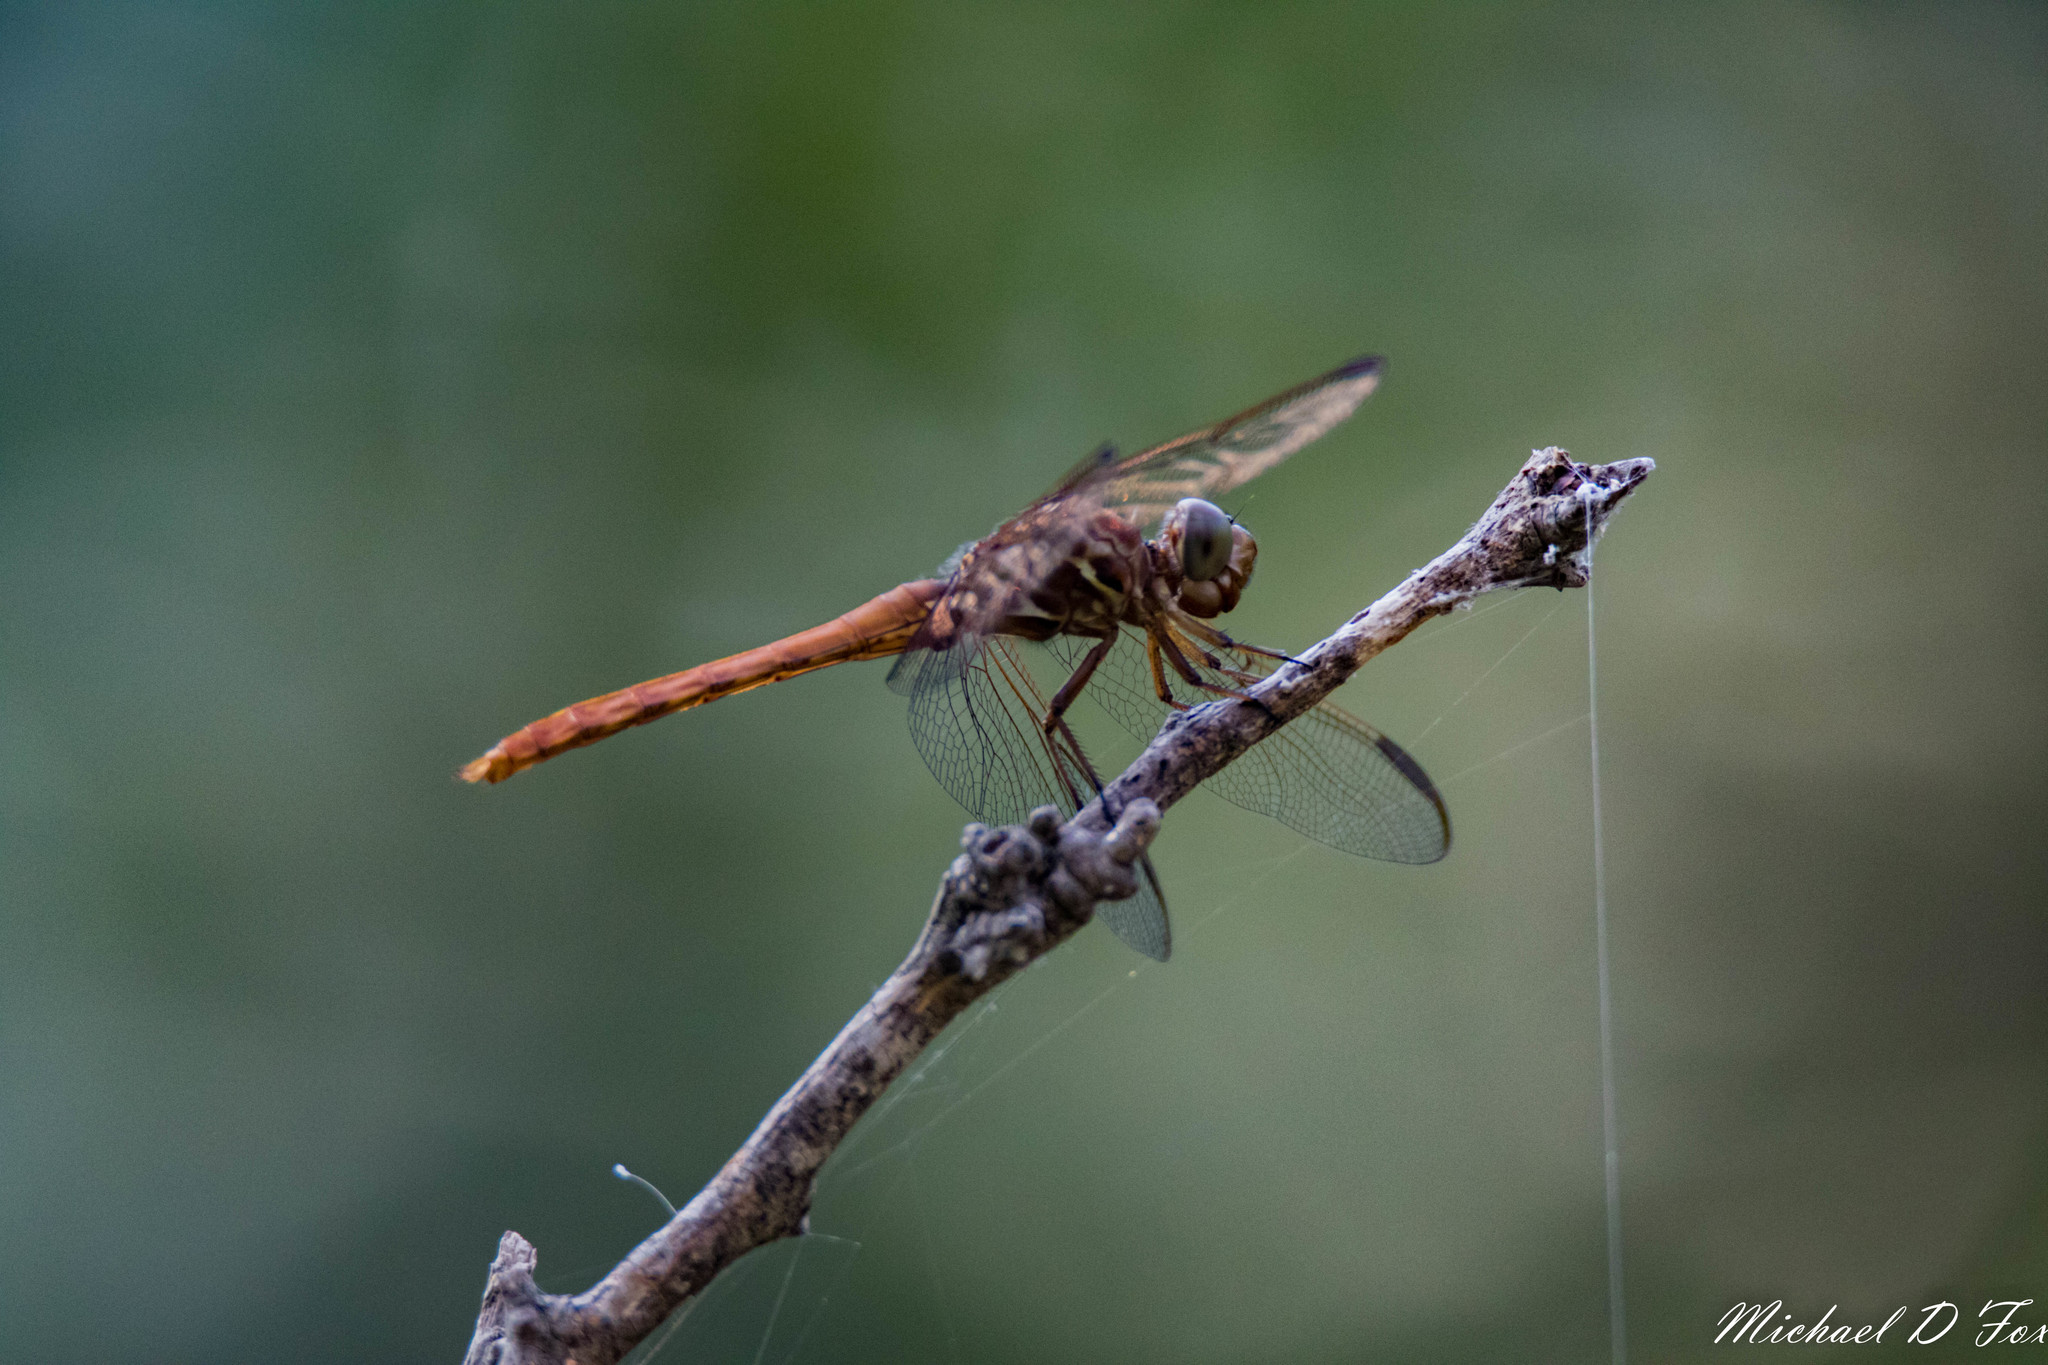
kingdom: Animalia
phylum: Arthropoda
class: Insecta
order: Odonata
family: Libellulidae
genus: Orthemis
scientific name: Orthemis ferruginea
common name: Roseate skimmer
